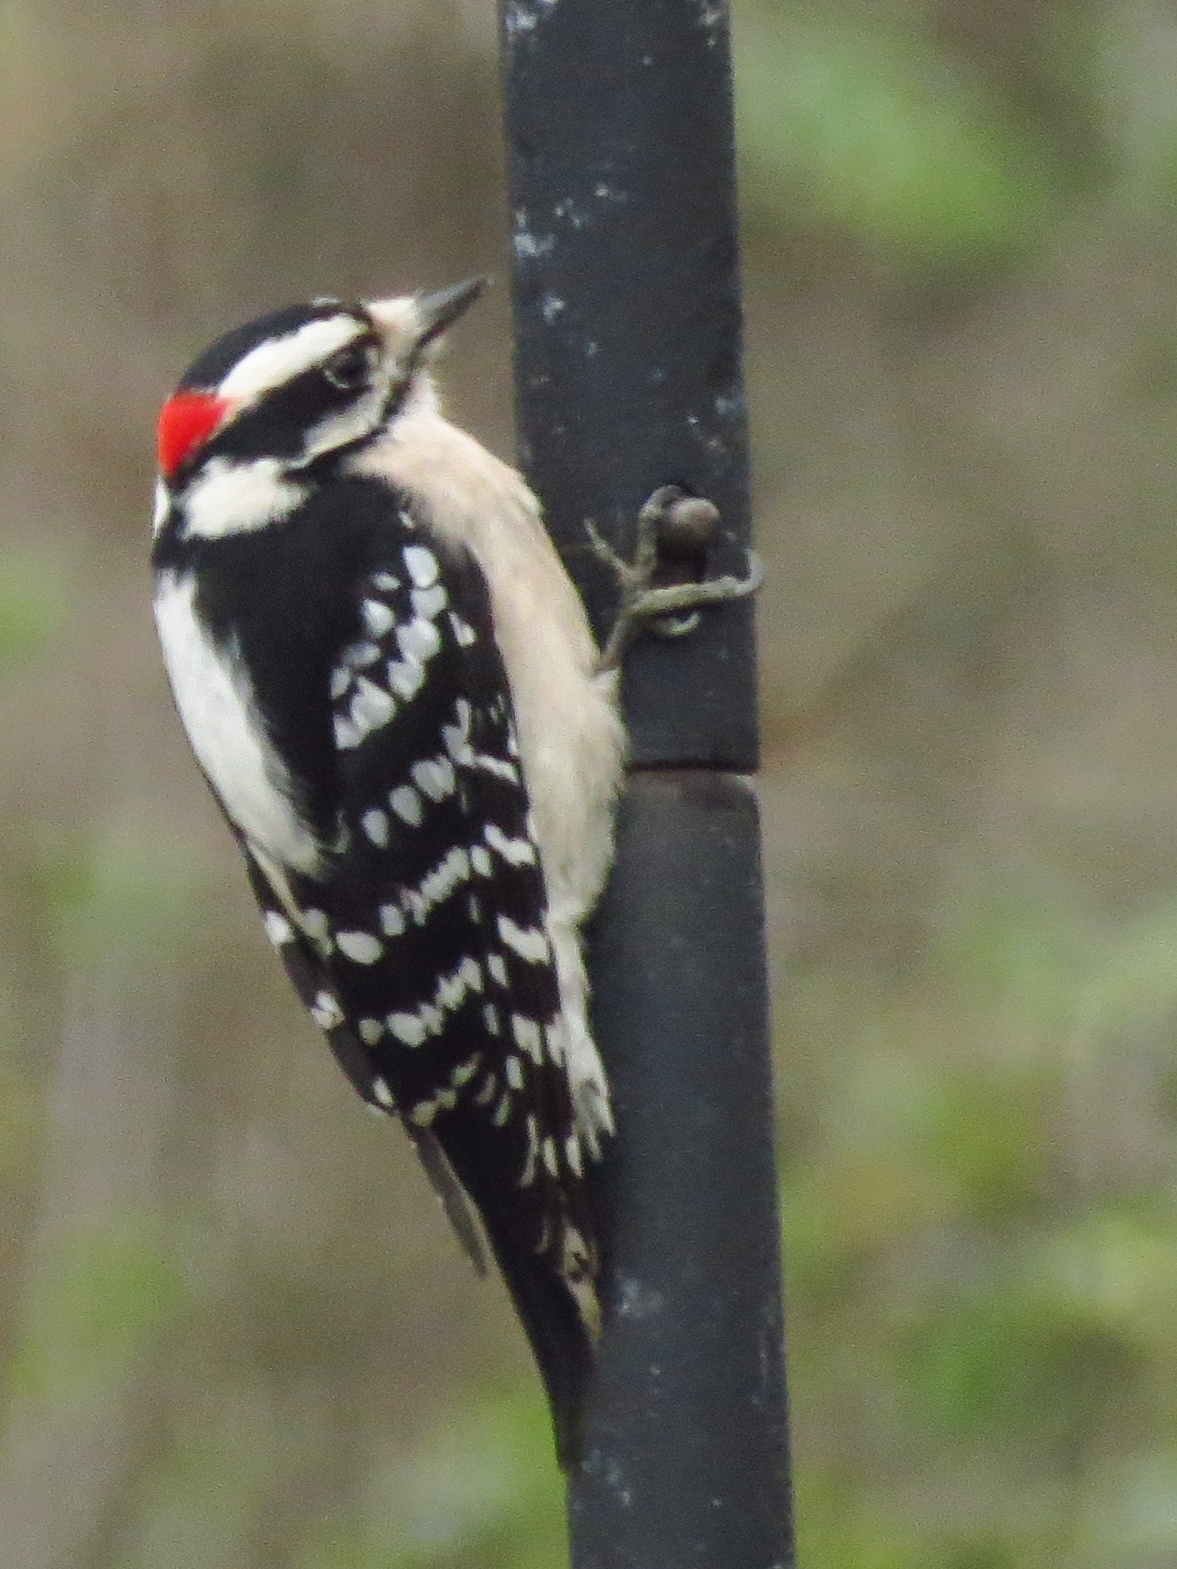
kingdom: Animalia
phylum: Chordata
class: Aves
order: Piciformes
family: Picidae
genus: Dryobates
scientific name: Dryobates pubescens
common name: Downy woodpecker
